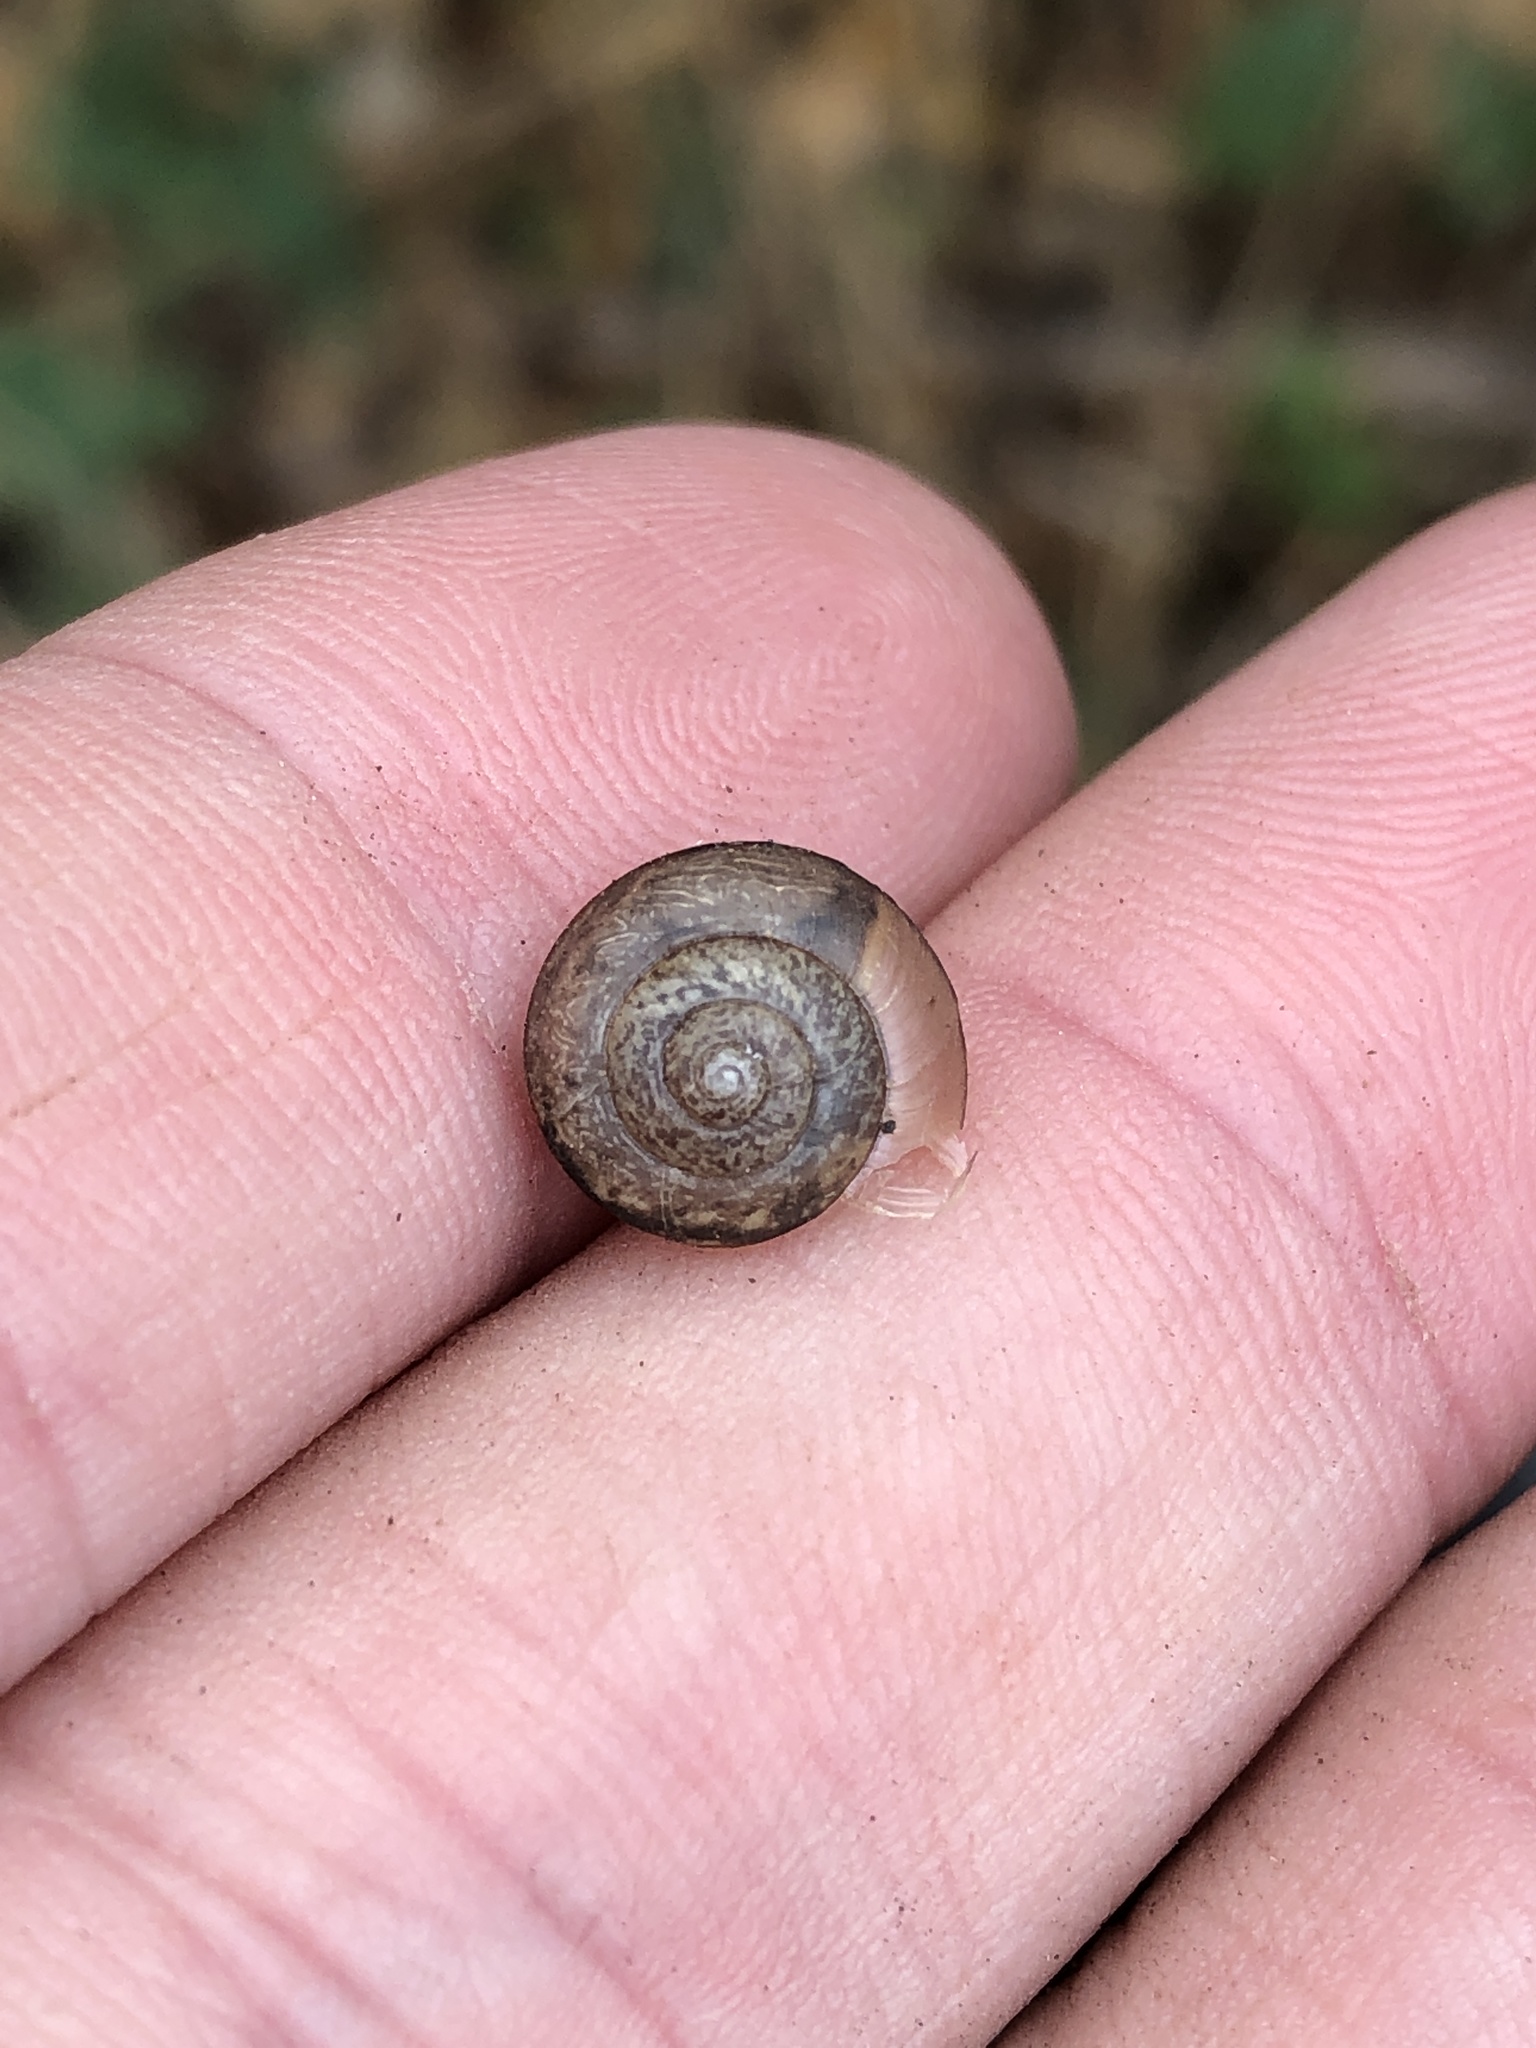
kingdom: Animalia
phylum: Mollusca
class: Gastropoda
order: Stylommatophora
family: Camaenidae
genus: Bradybaena
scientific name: Bradybaena similaris
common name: Asian trampsnail
